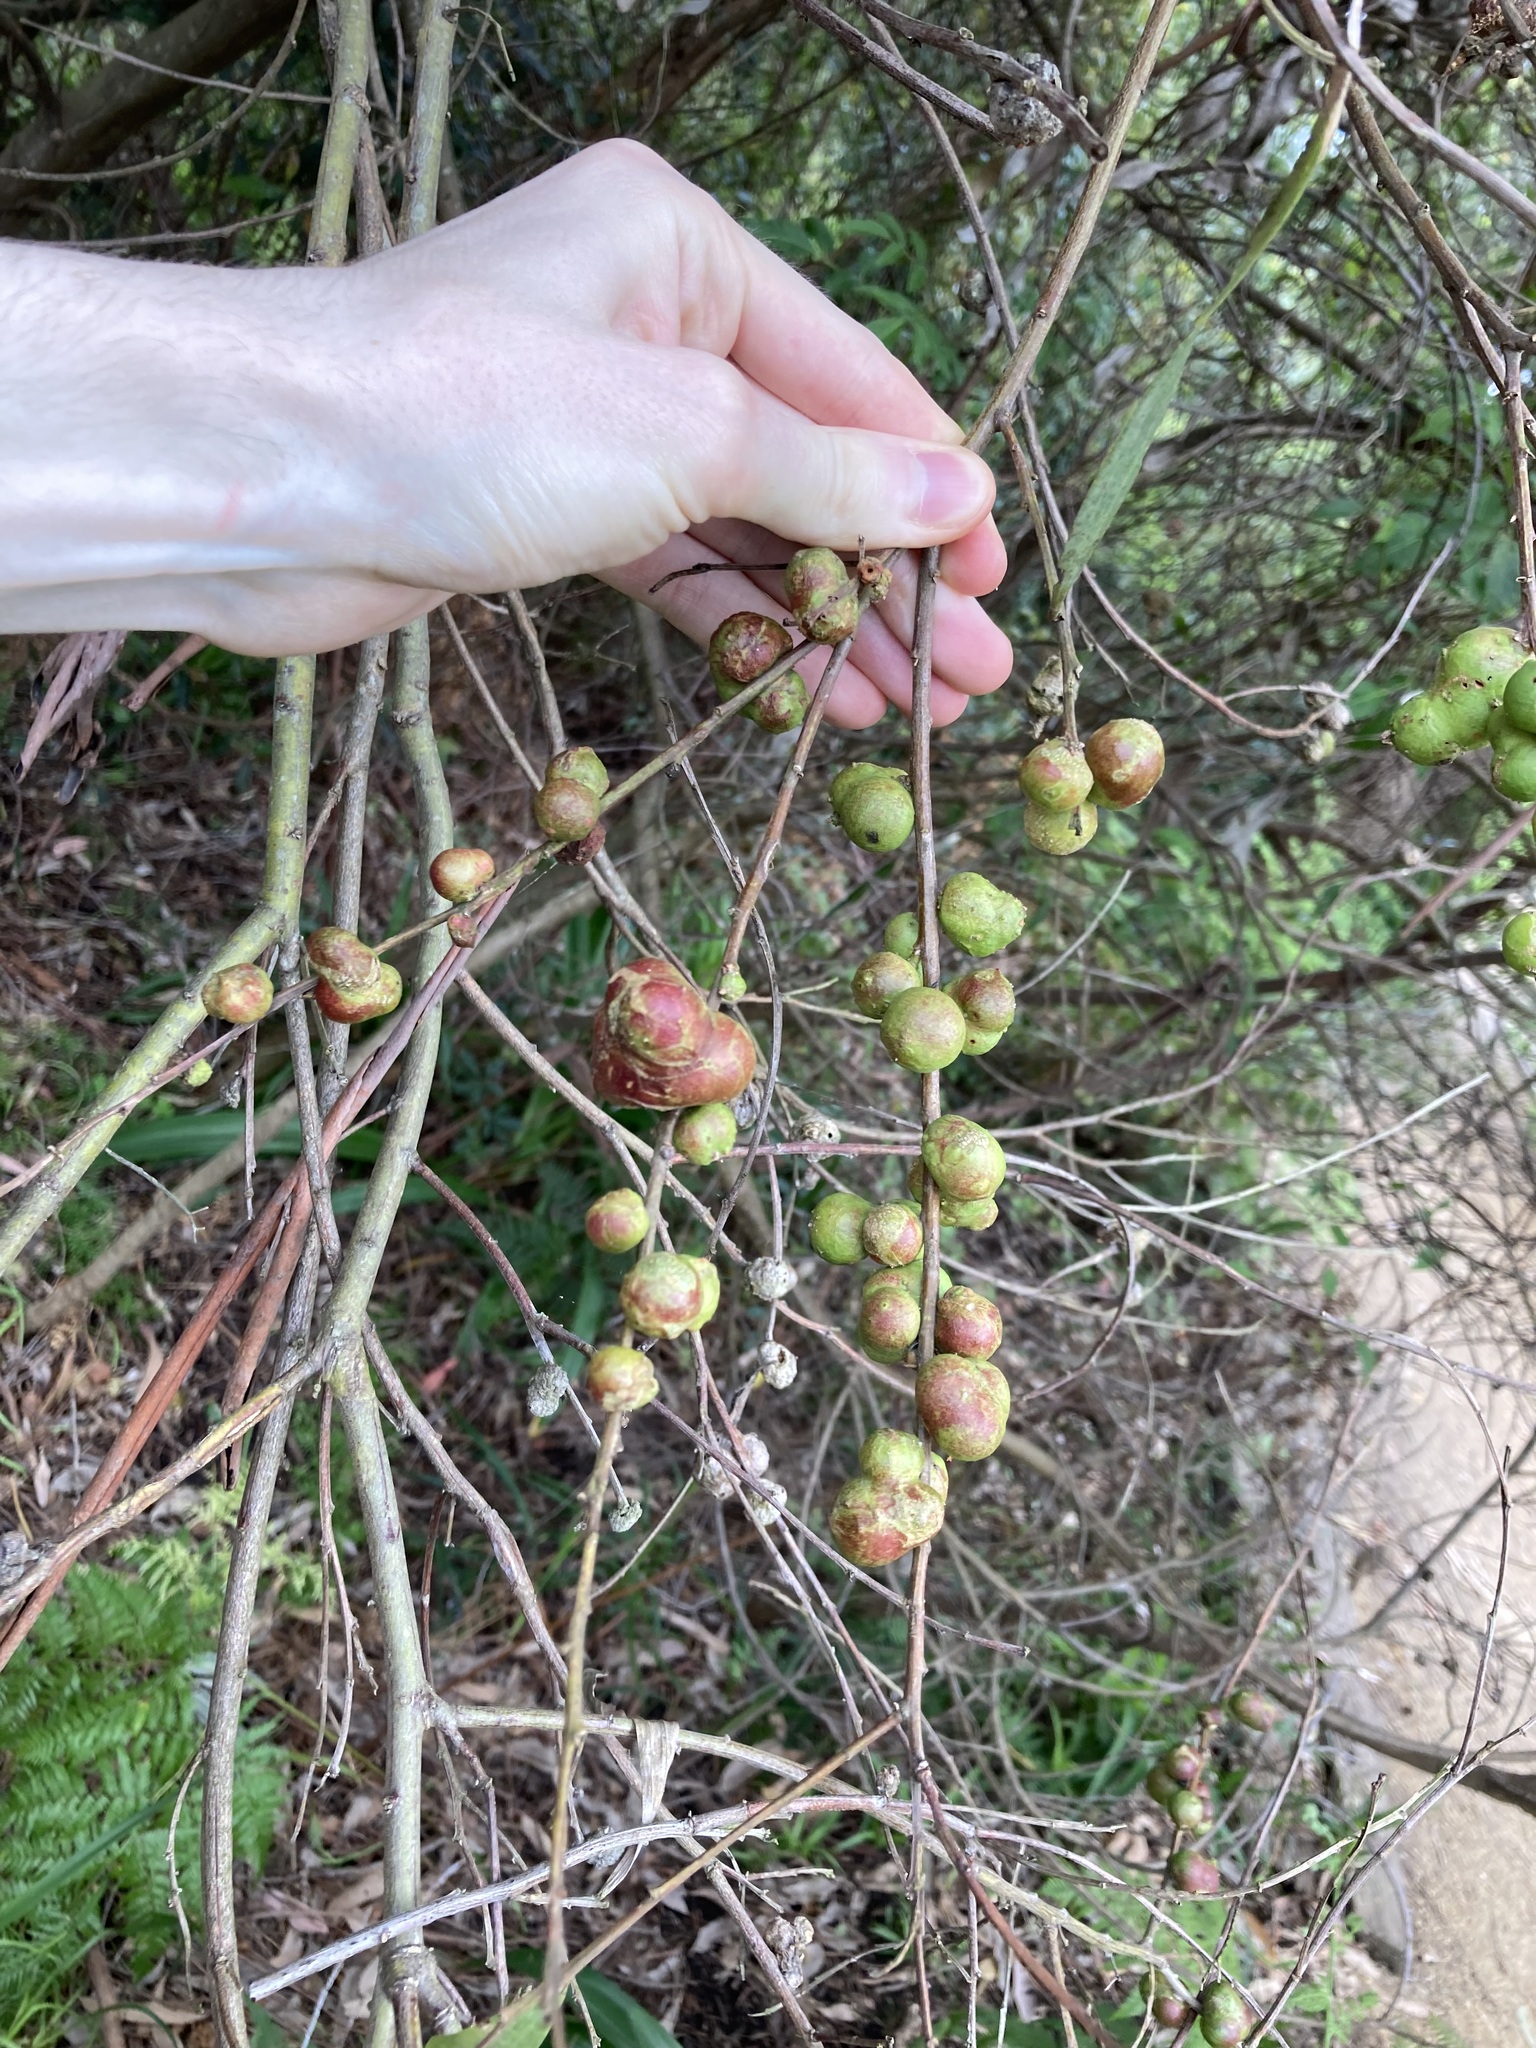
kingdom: Animalia
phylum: Arthropoda
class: Insecta
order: Hymenoptera
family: Pteromalidae
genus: Trichilogaster
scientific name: Trichilogaster acaciaelongifoliae
